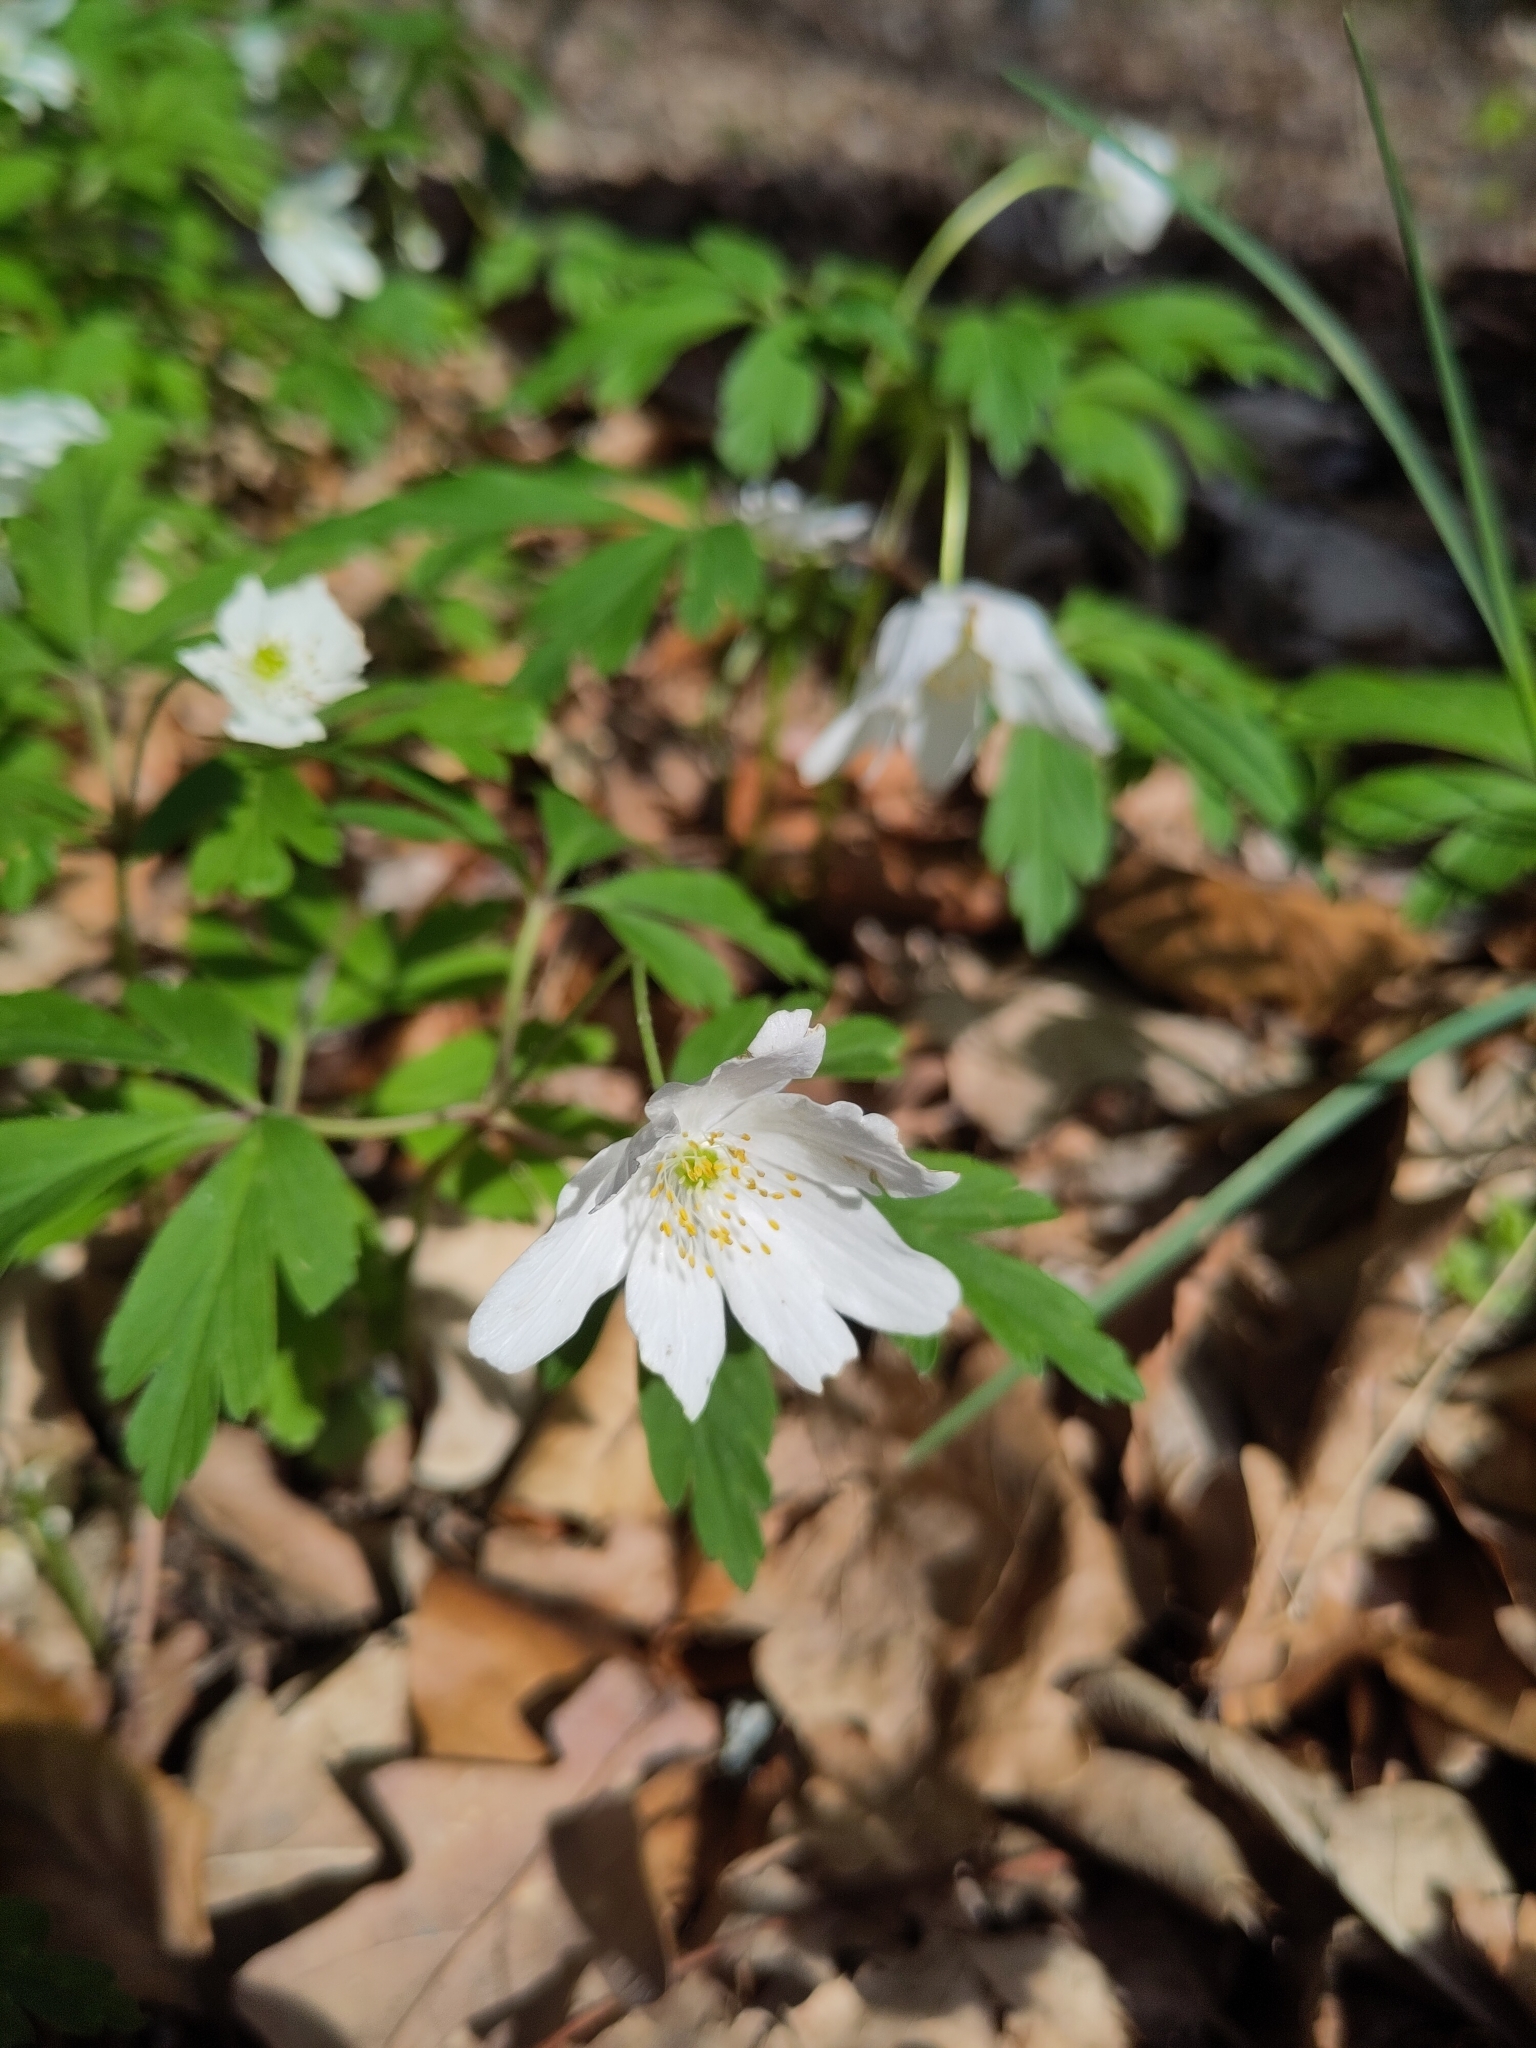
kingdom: Plantae
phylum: Tracheophyta
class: Magnoliopsida
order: Ranunculales
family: Ranunculaceae
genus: Anemone
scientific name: Anemone nemorosa
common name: Wood anemone
